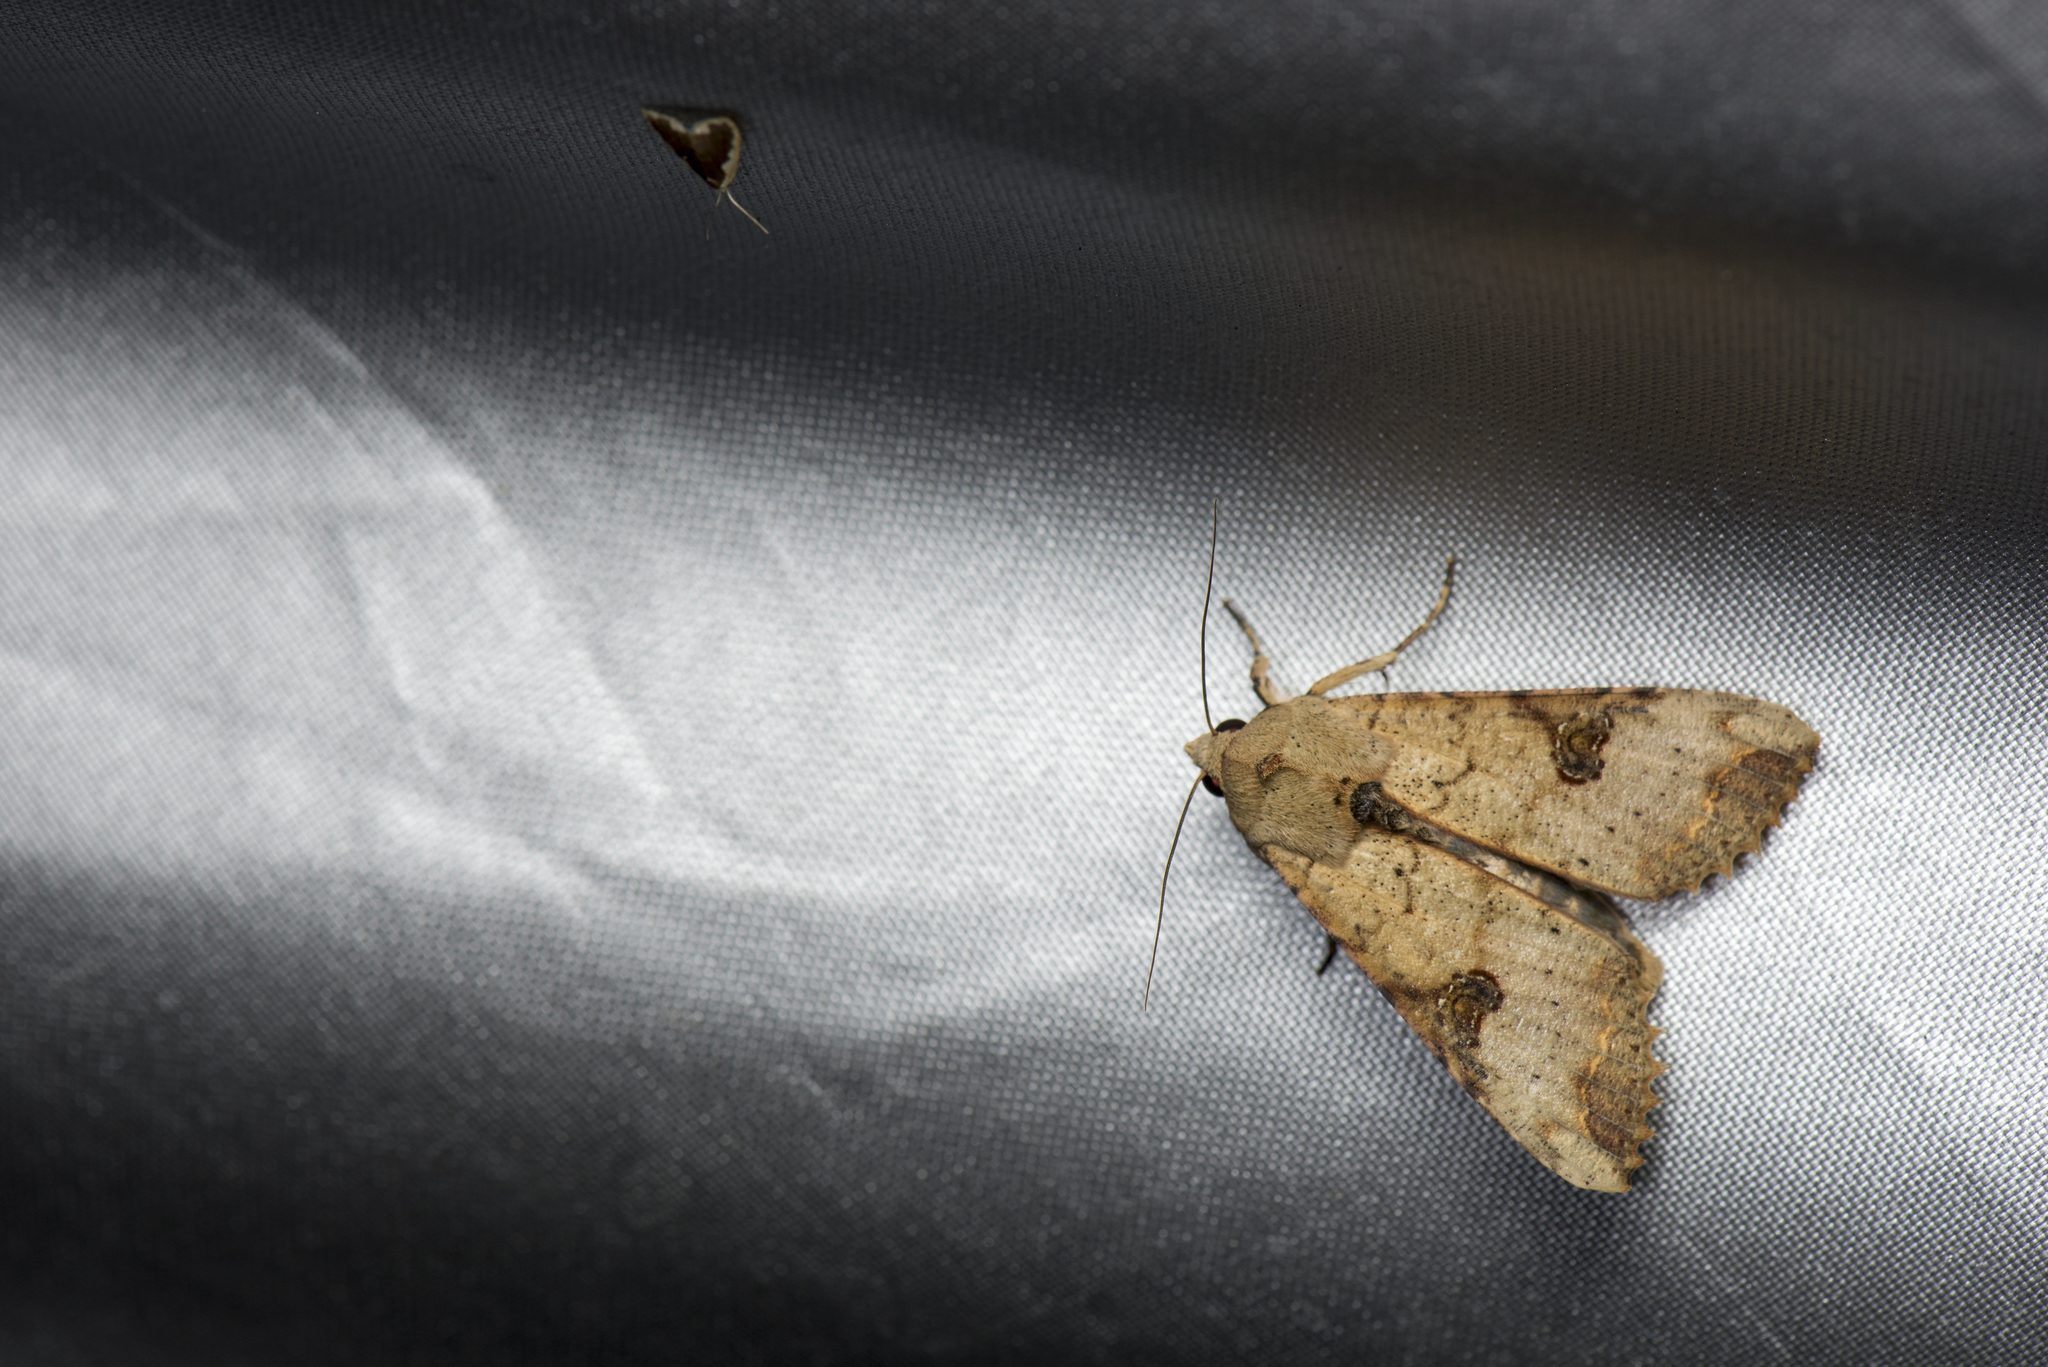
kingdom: Animalia
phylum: Arthropoda
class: Insecta
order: Lepidoptera
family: Noctuidae
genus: Tiracola
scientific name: Tiracola aureata
